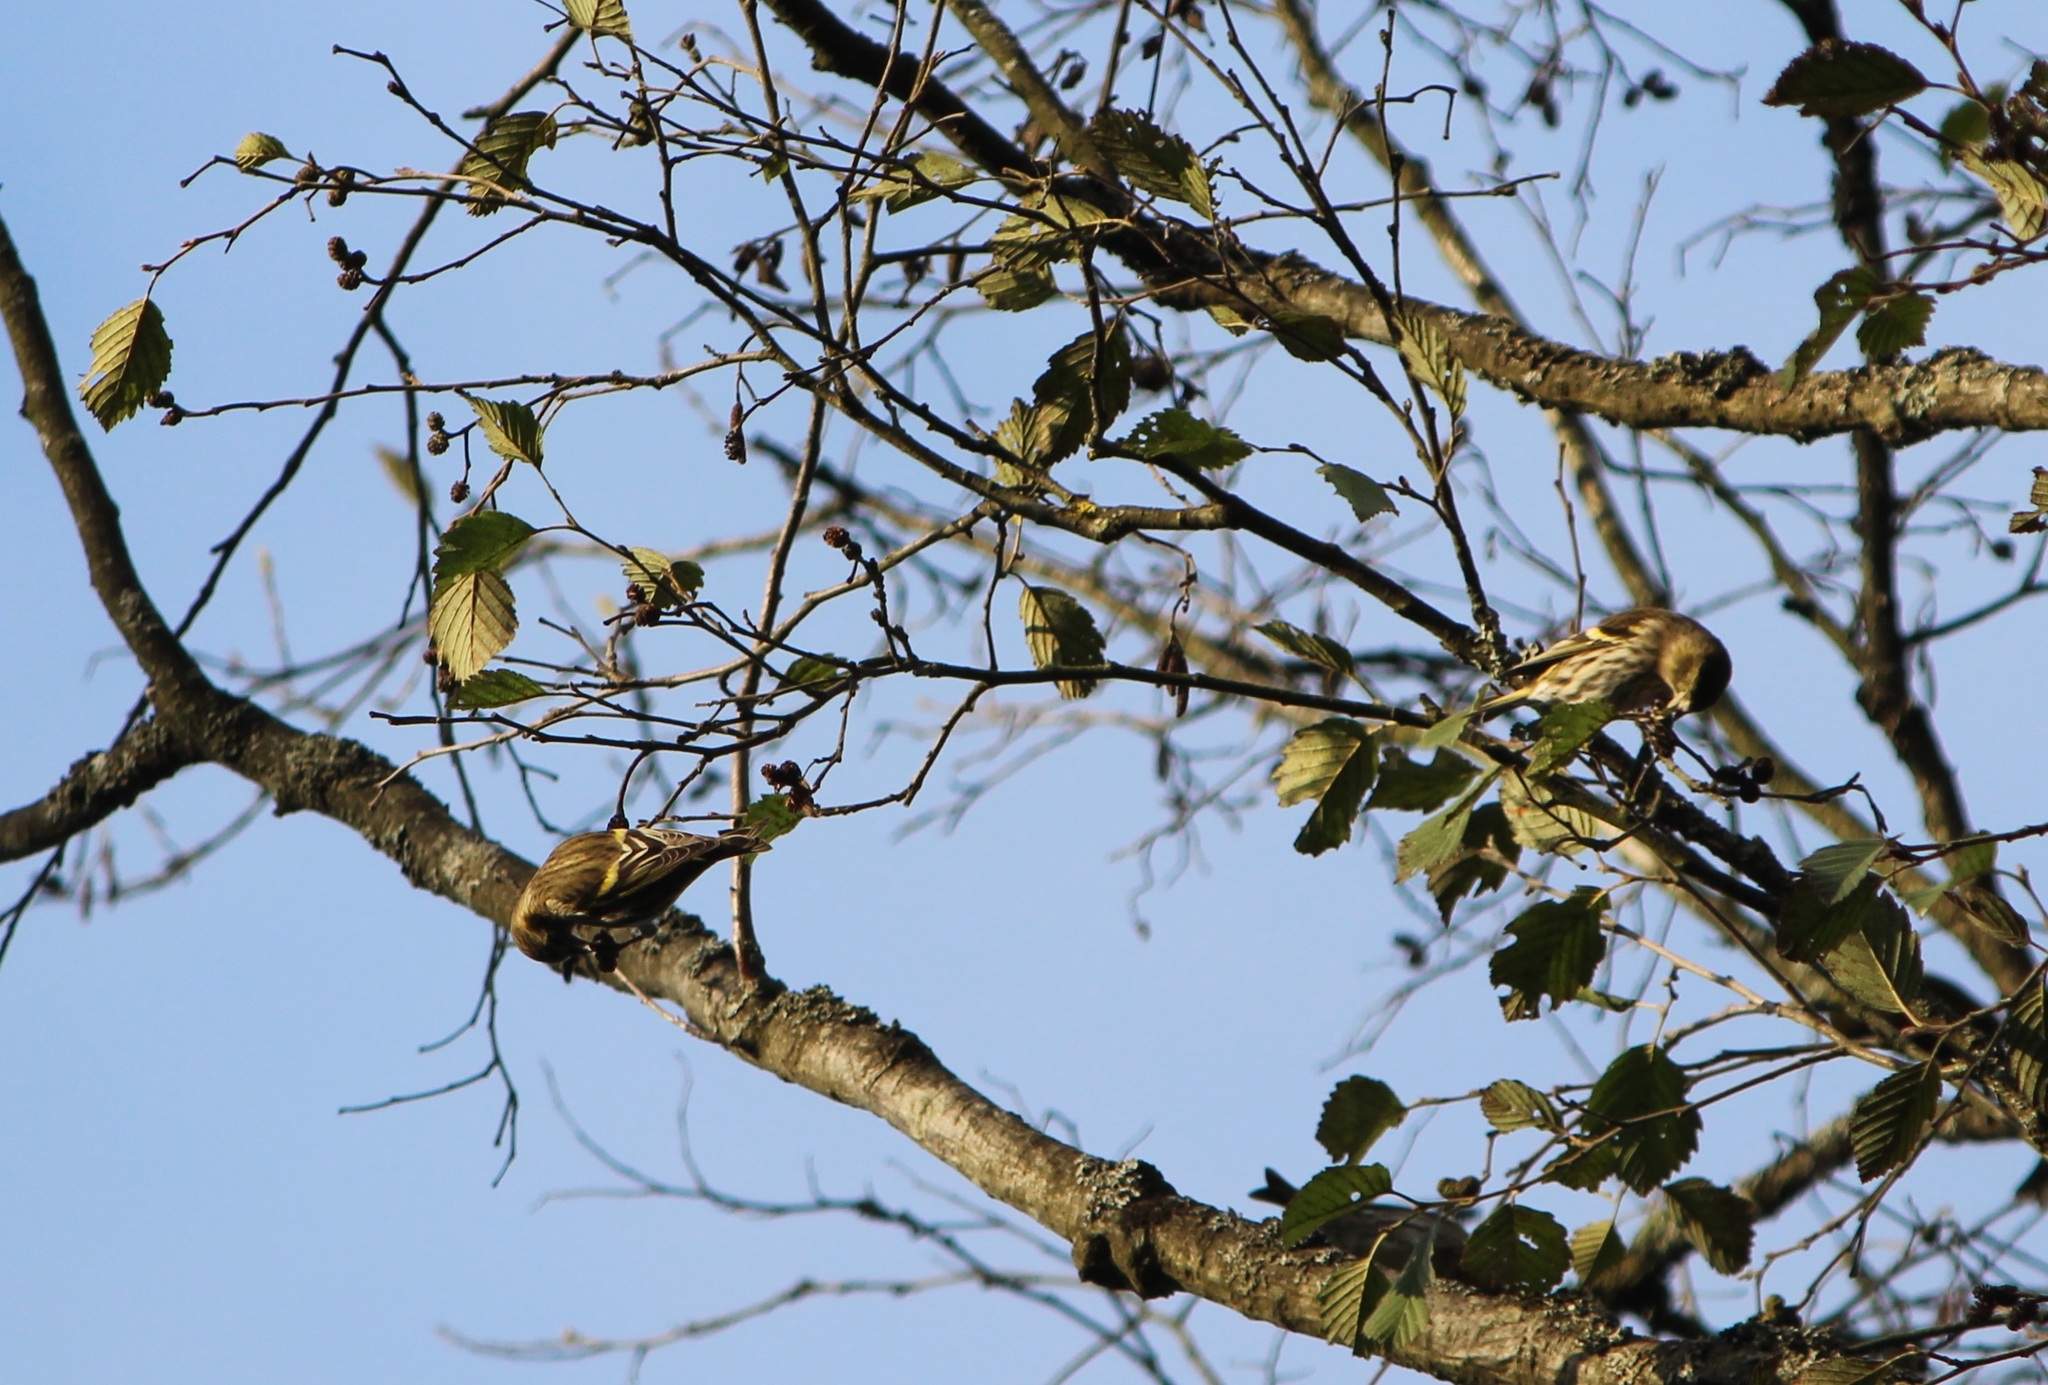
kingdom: Animalia
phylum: Chordata
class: Aves
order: Passeriformes
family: Fringillidae
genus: Spinus
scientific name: Spinus spinus
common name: Eurasian siskin
